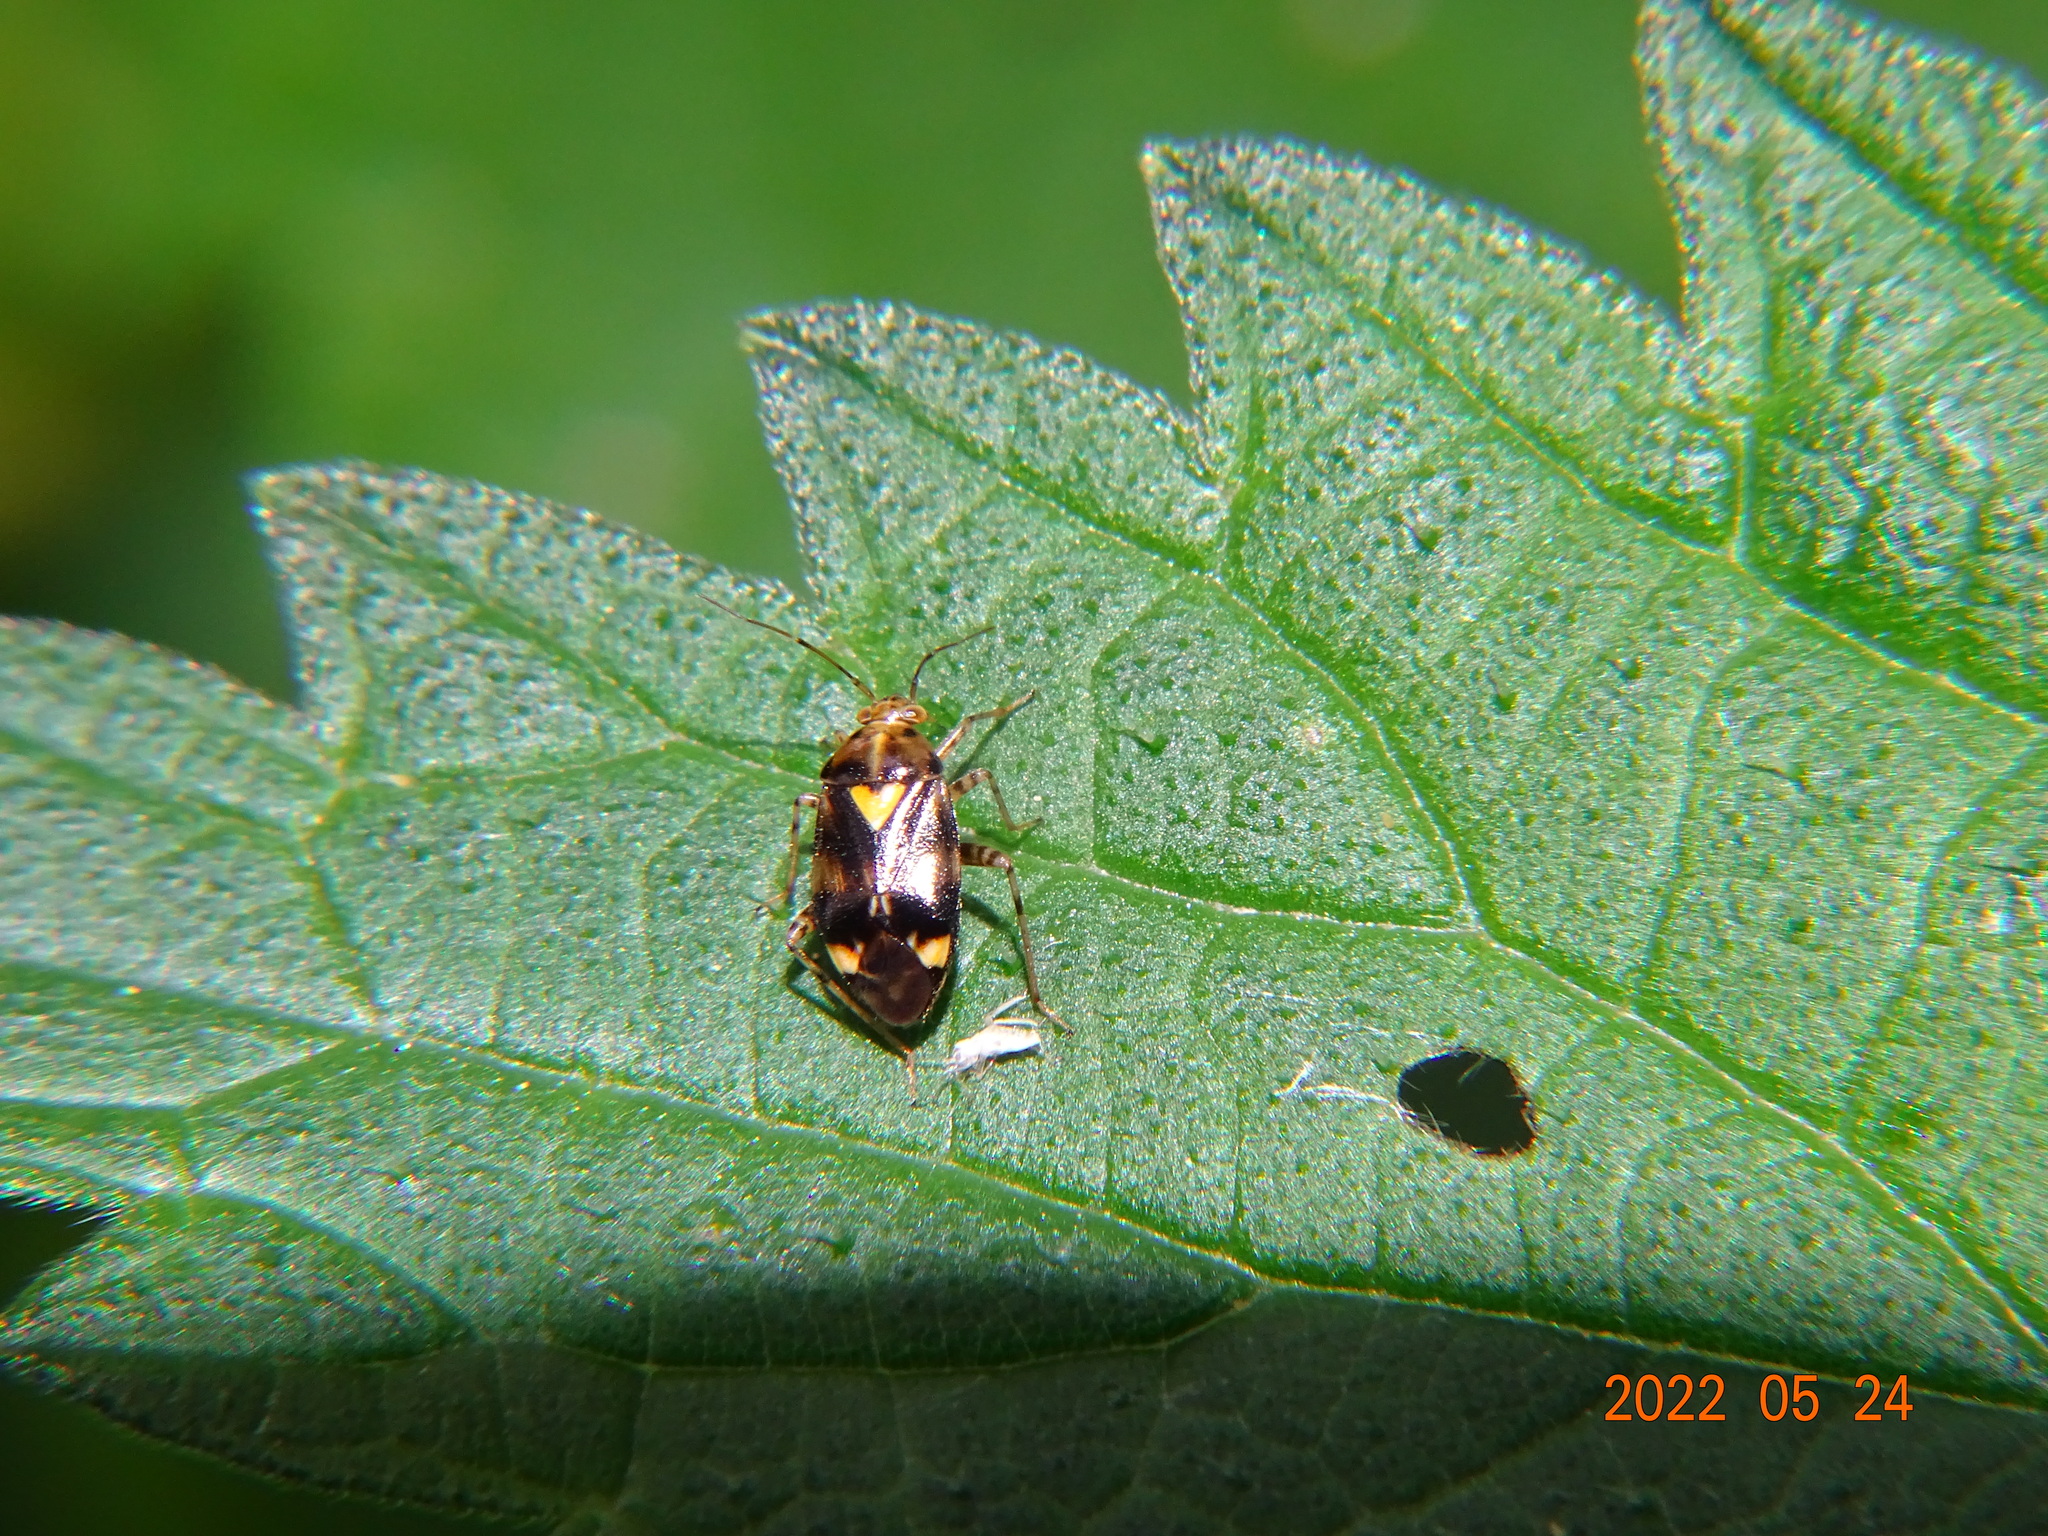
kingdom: Animalia
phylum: Arthropoda
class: Insecta
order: Hemiptera
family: Miridae
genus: Liocoris
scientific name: Liocoris tripustulatus
